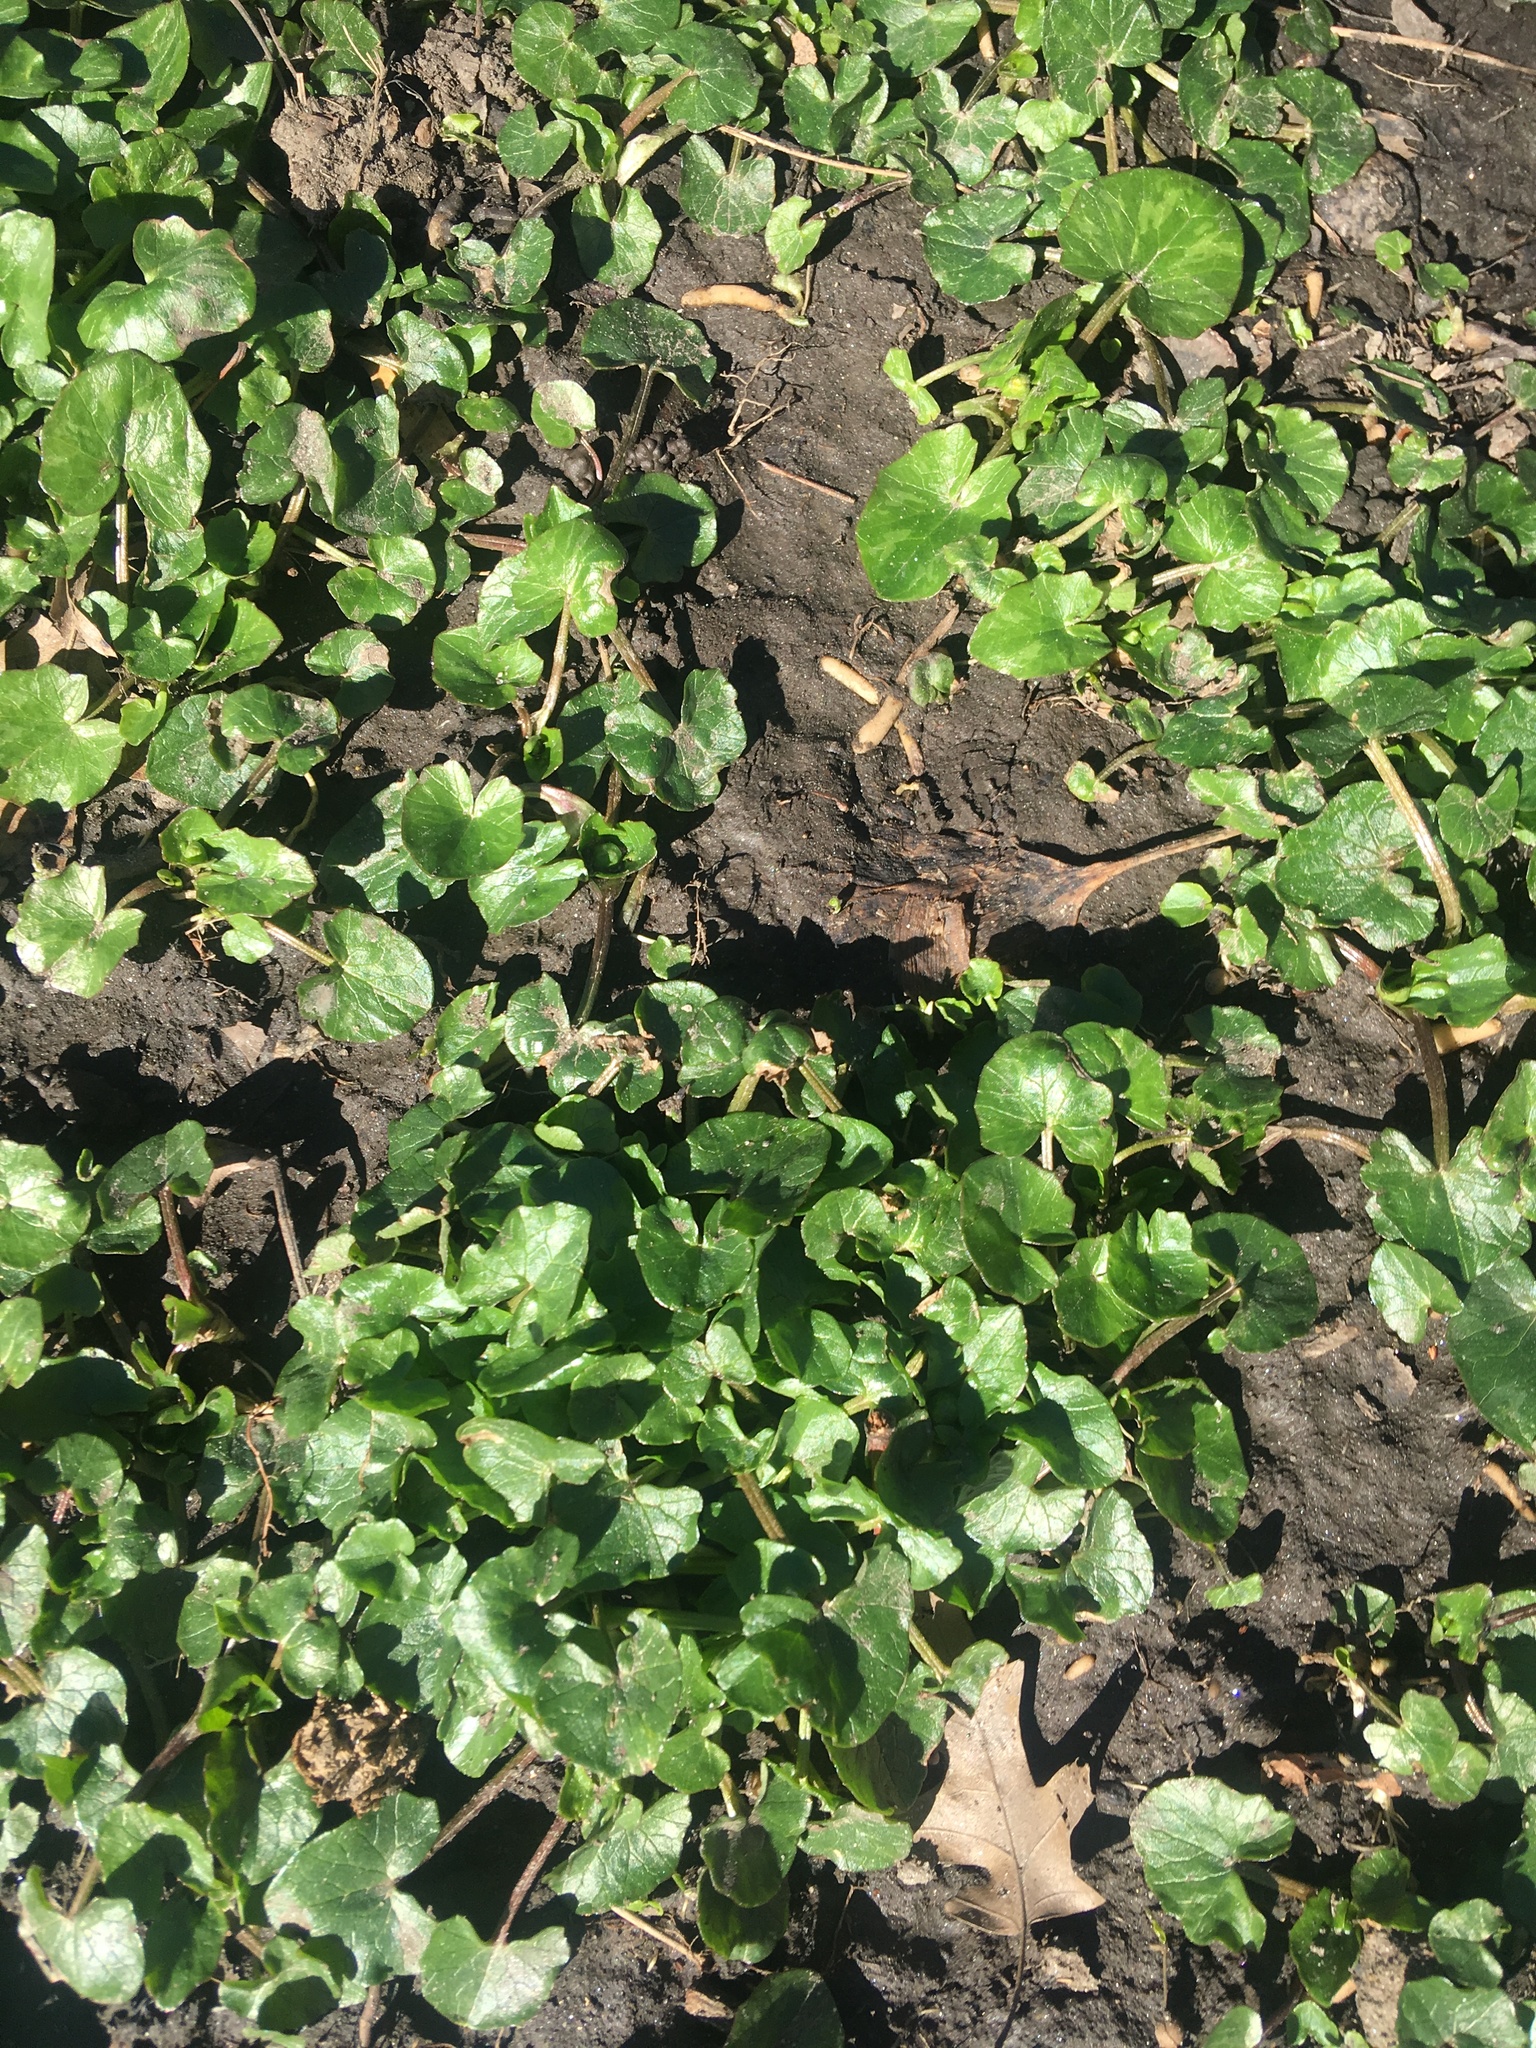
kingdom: Plantae
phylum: Tracheophyta
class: Magnoliopsida
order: Ranunculales
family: Ranunculaceae
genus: Ficaria
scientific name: Ficaria verna
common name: Lesser celandine
